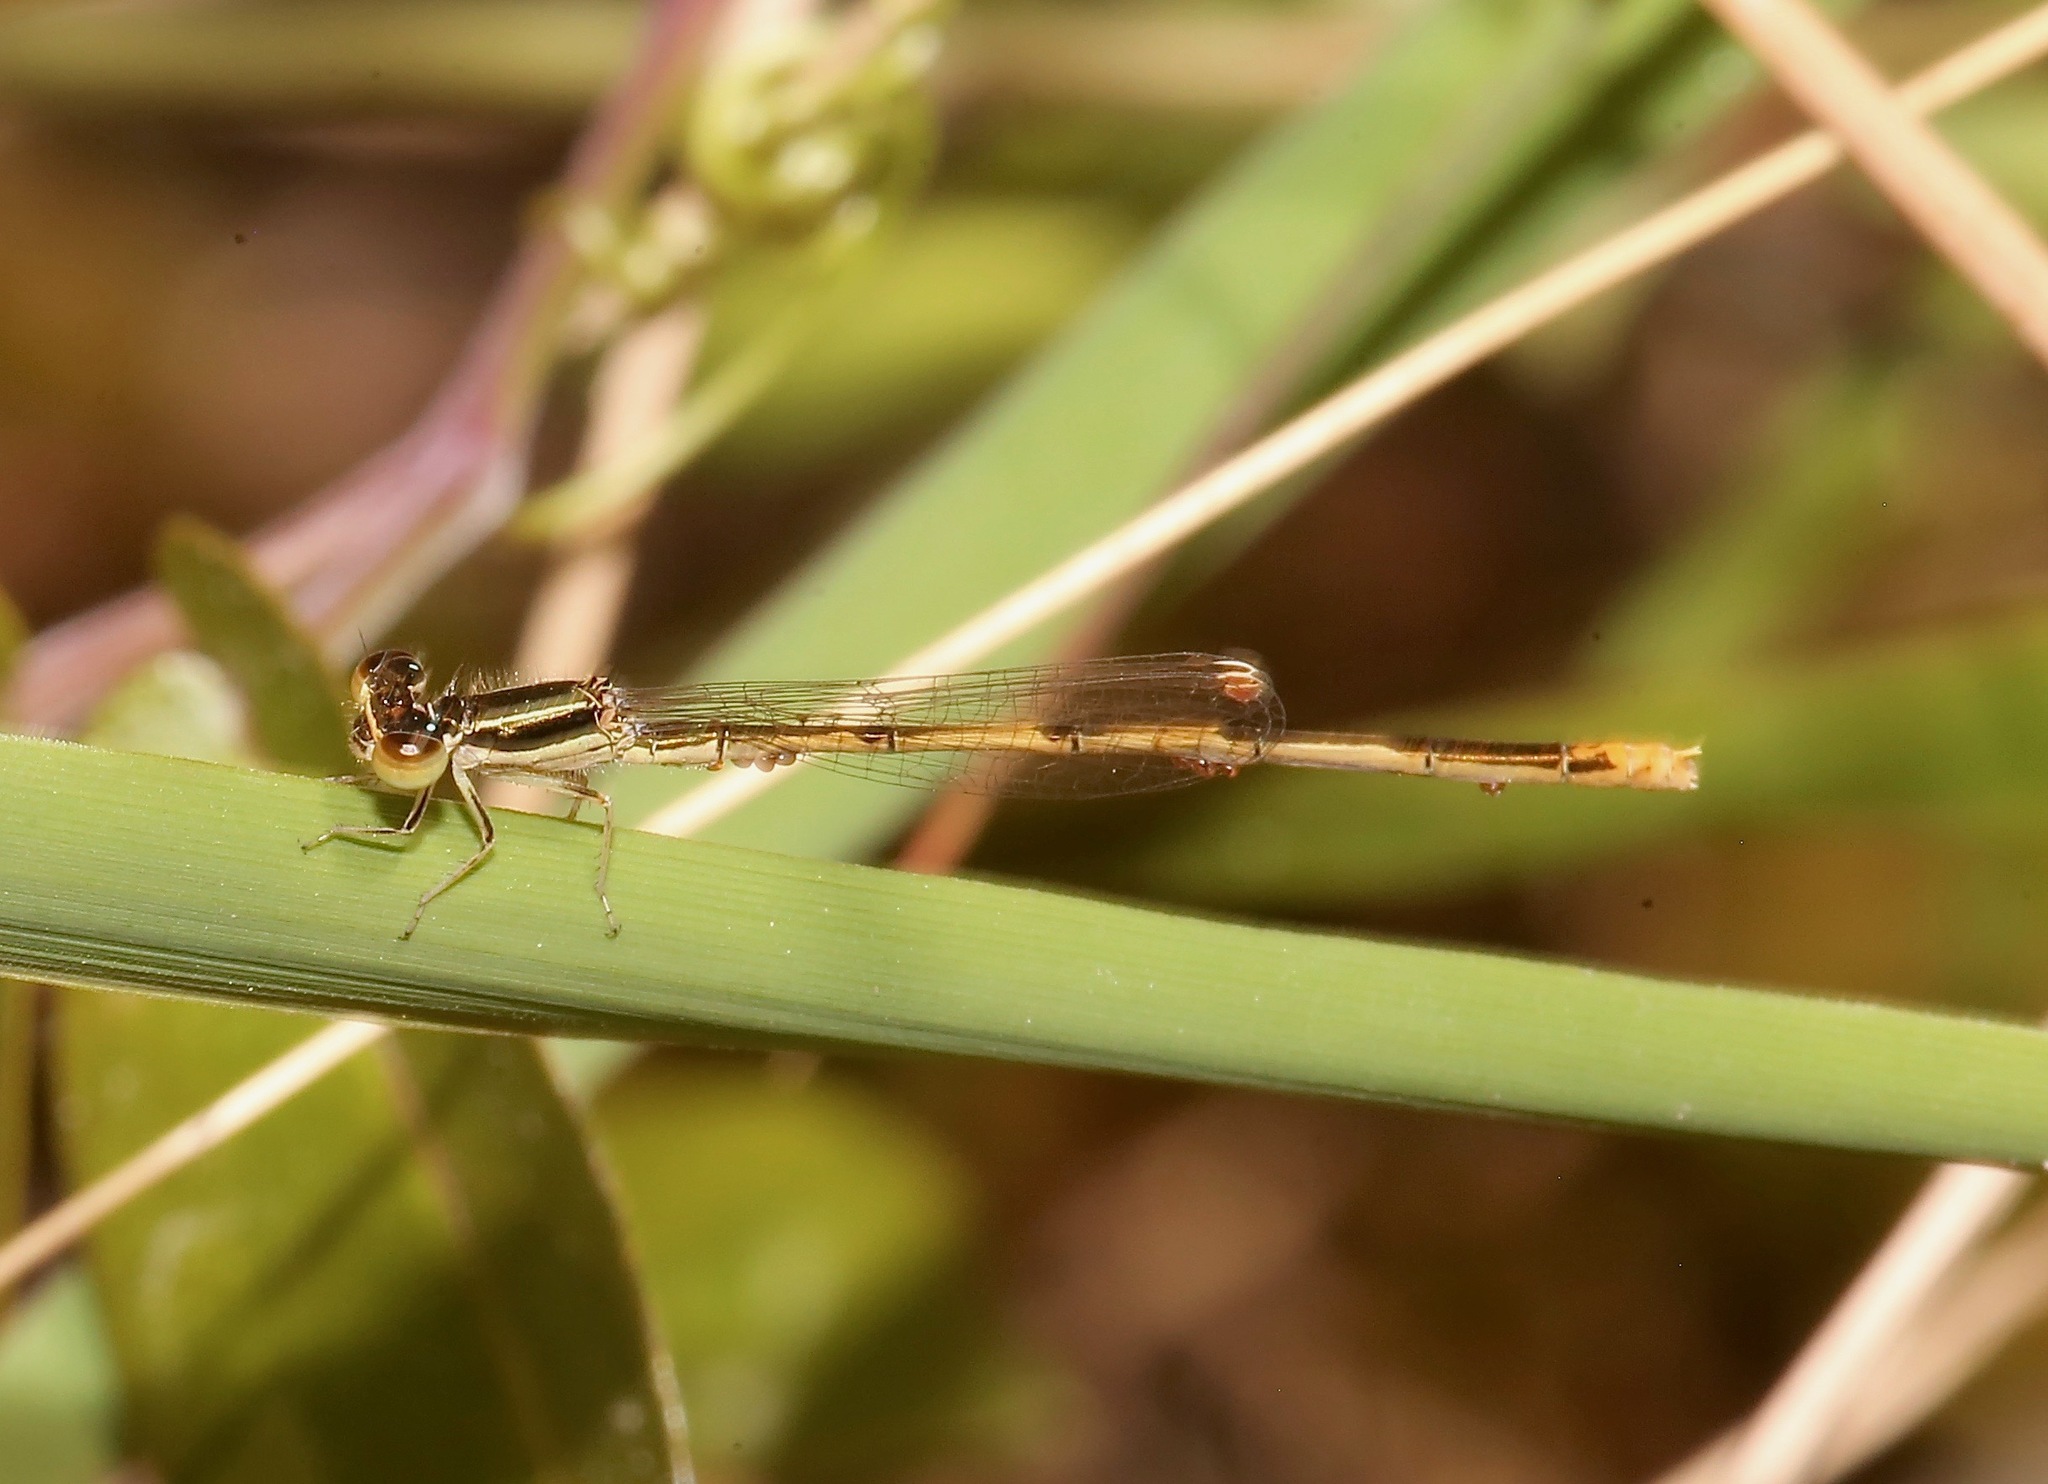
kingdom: Animalia
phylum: Arthropoda
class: Insecta
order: Odonata
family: Coenagrionidae
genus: Ischnura
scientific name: Ischnura hastata
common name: Citrine forktail
